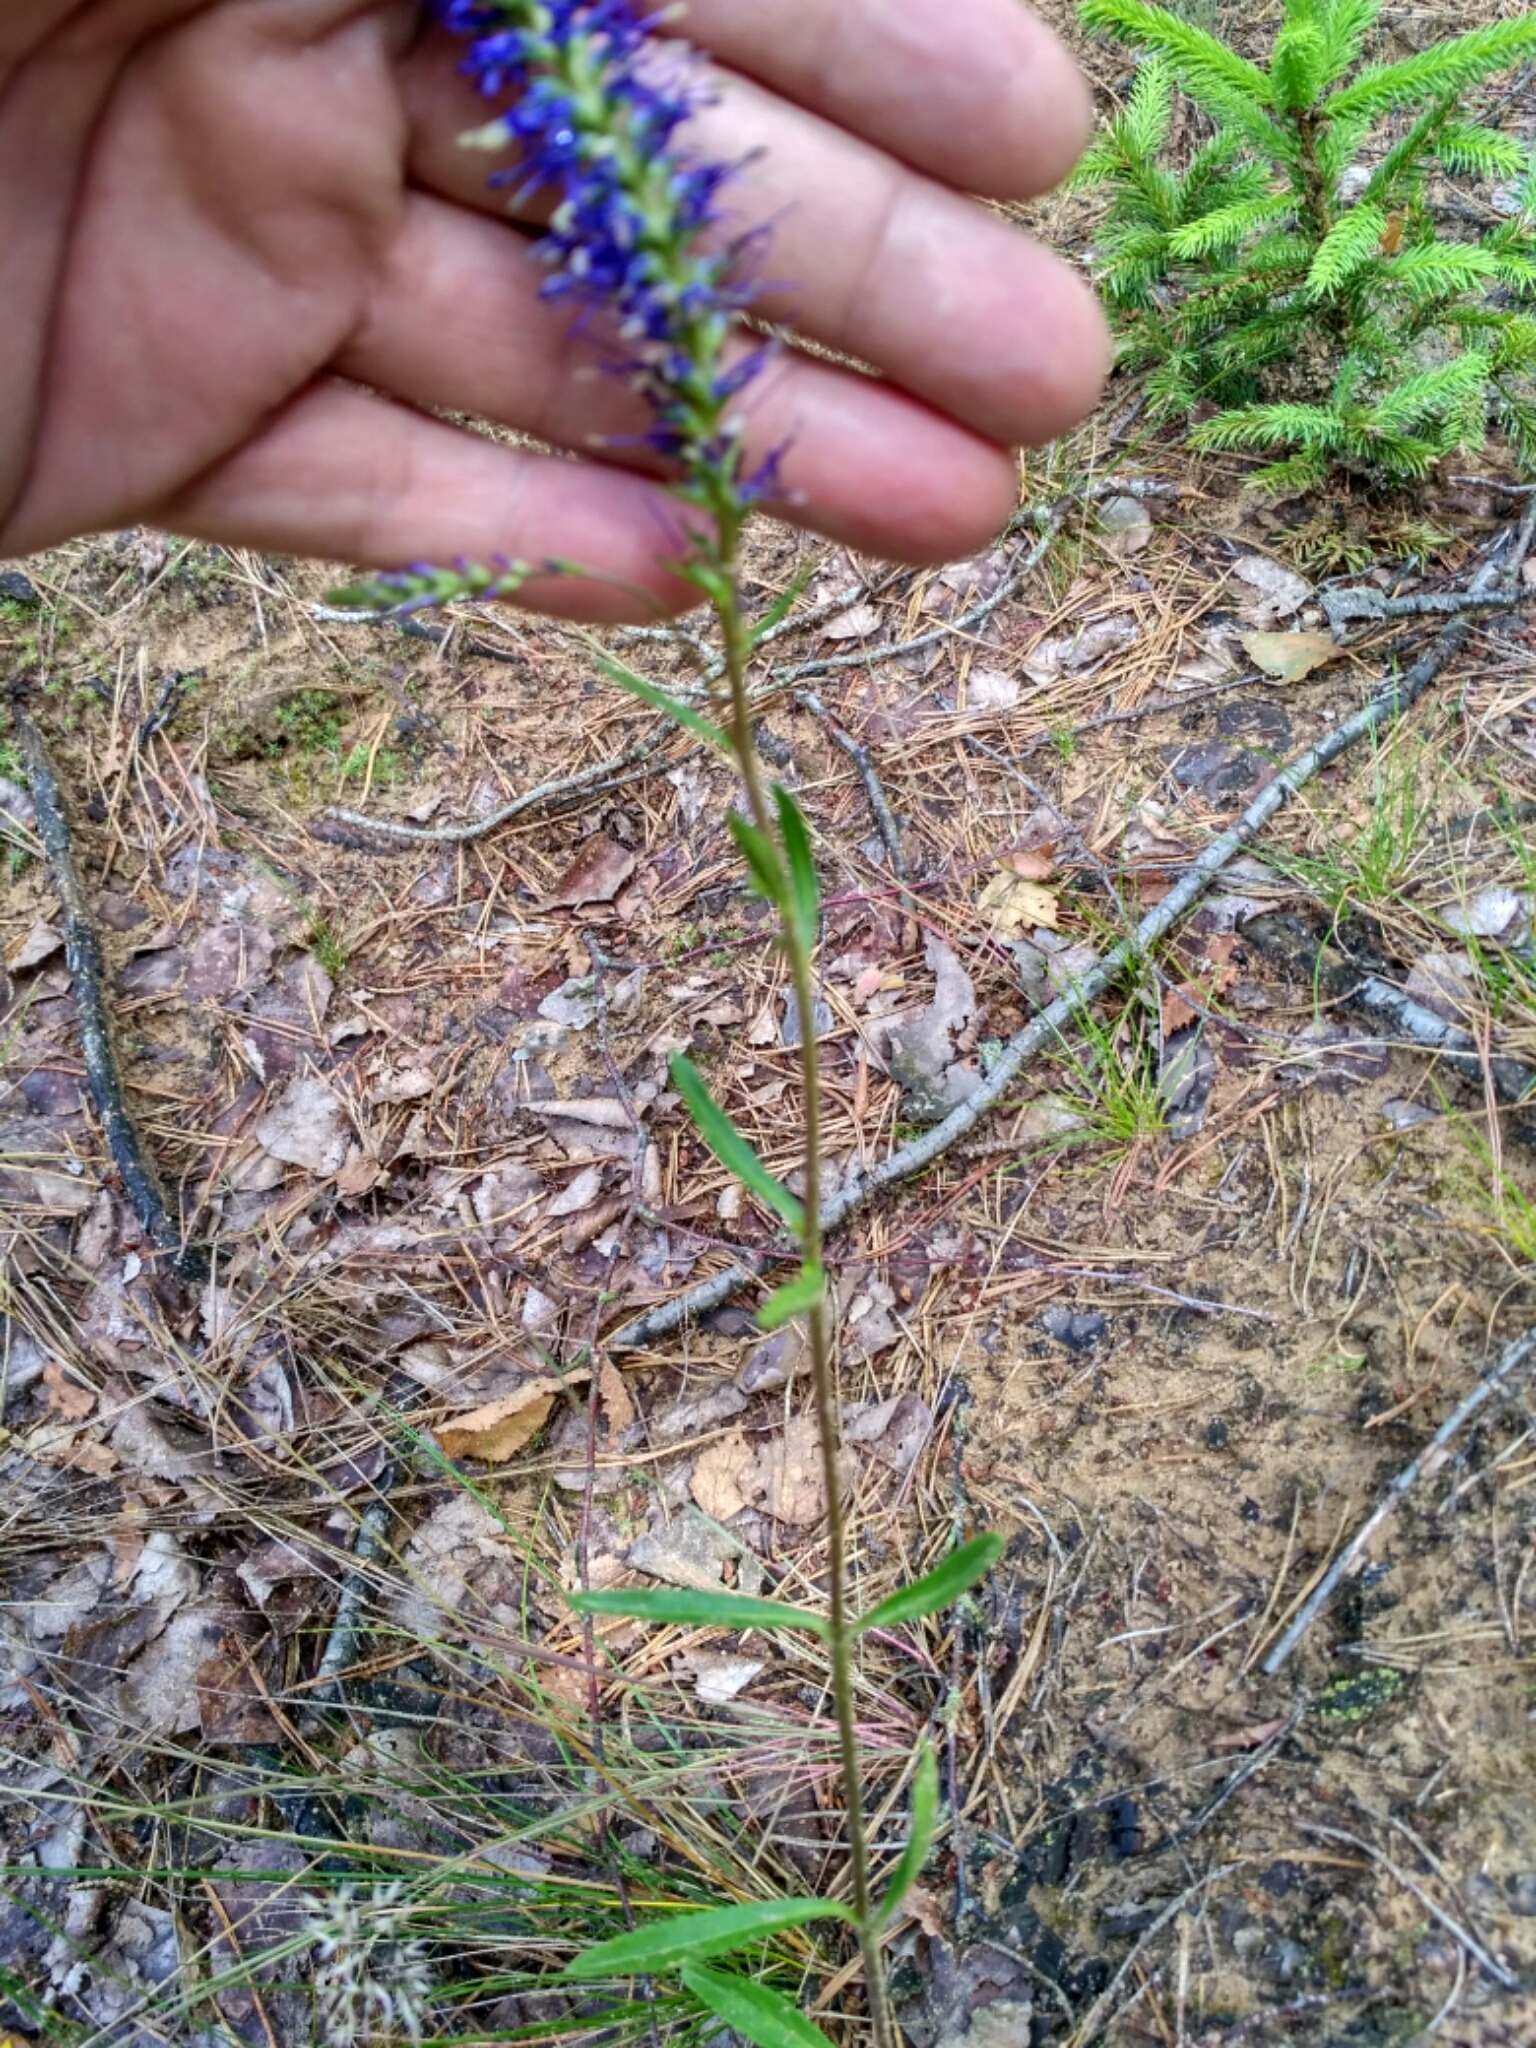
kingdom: Plantae
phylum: Tracheophyta
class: Magnoliopsida
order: Lamiales
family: Plantaginaceae
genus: Veronica
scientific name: Veronica spicata
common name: Spiked speedwell
